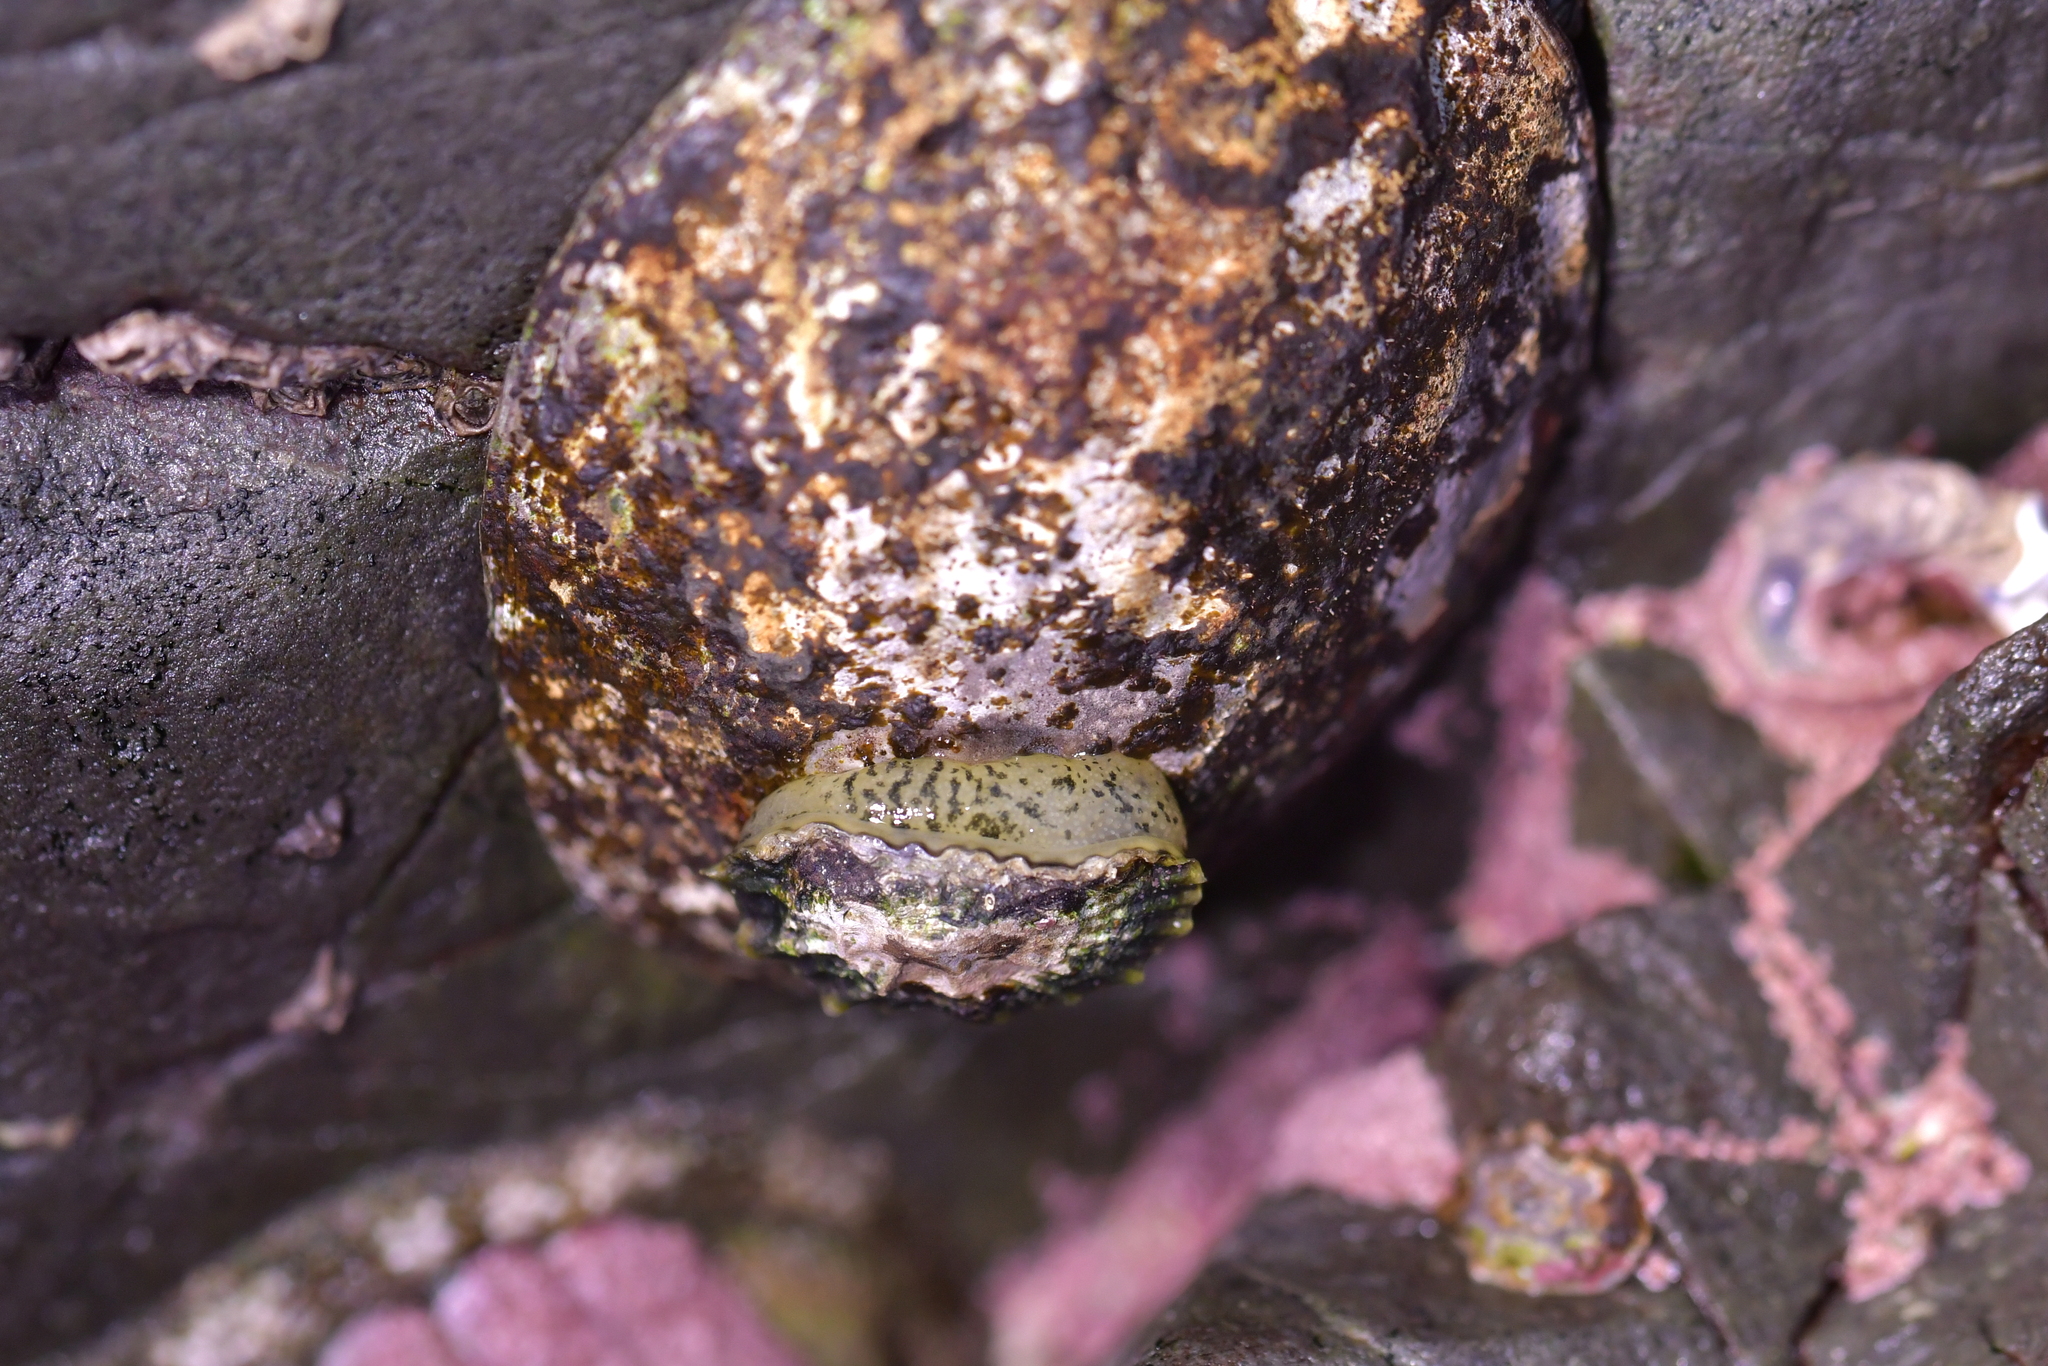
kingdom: Animalia
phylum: Mollusca
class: Gastropoda
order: Siphonariida
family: Siphonariidae
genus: Siphonaria
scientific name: Siphonaria australis
